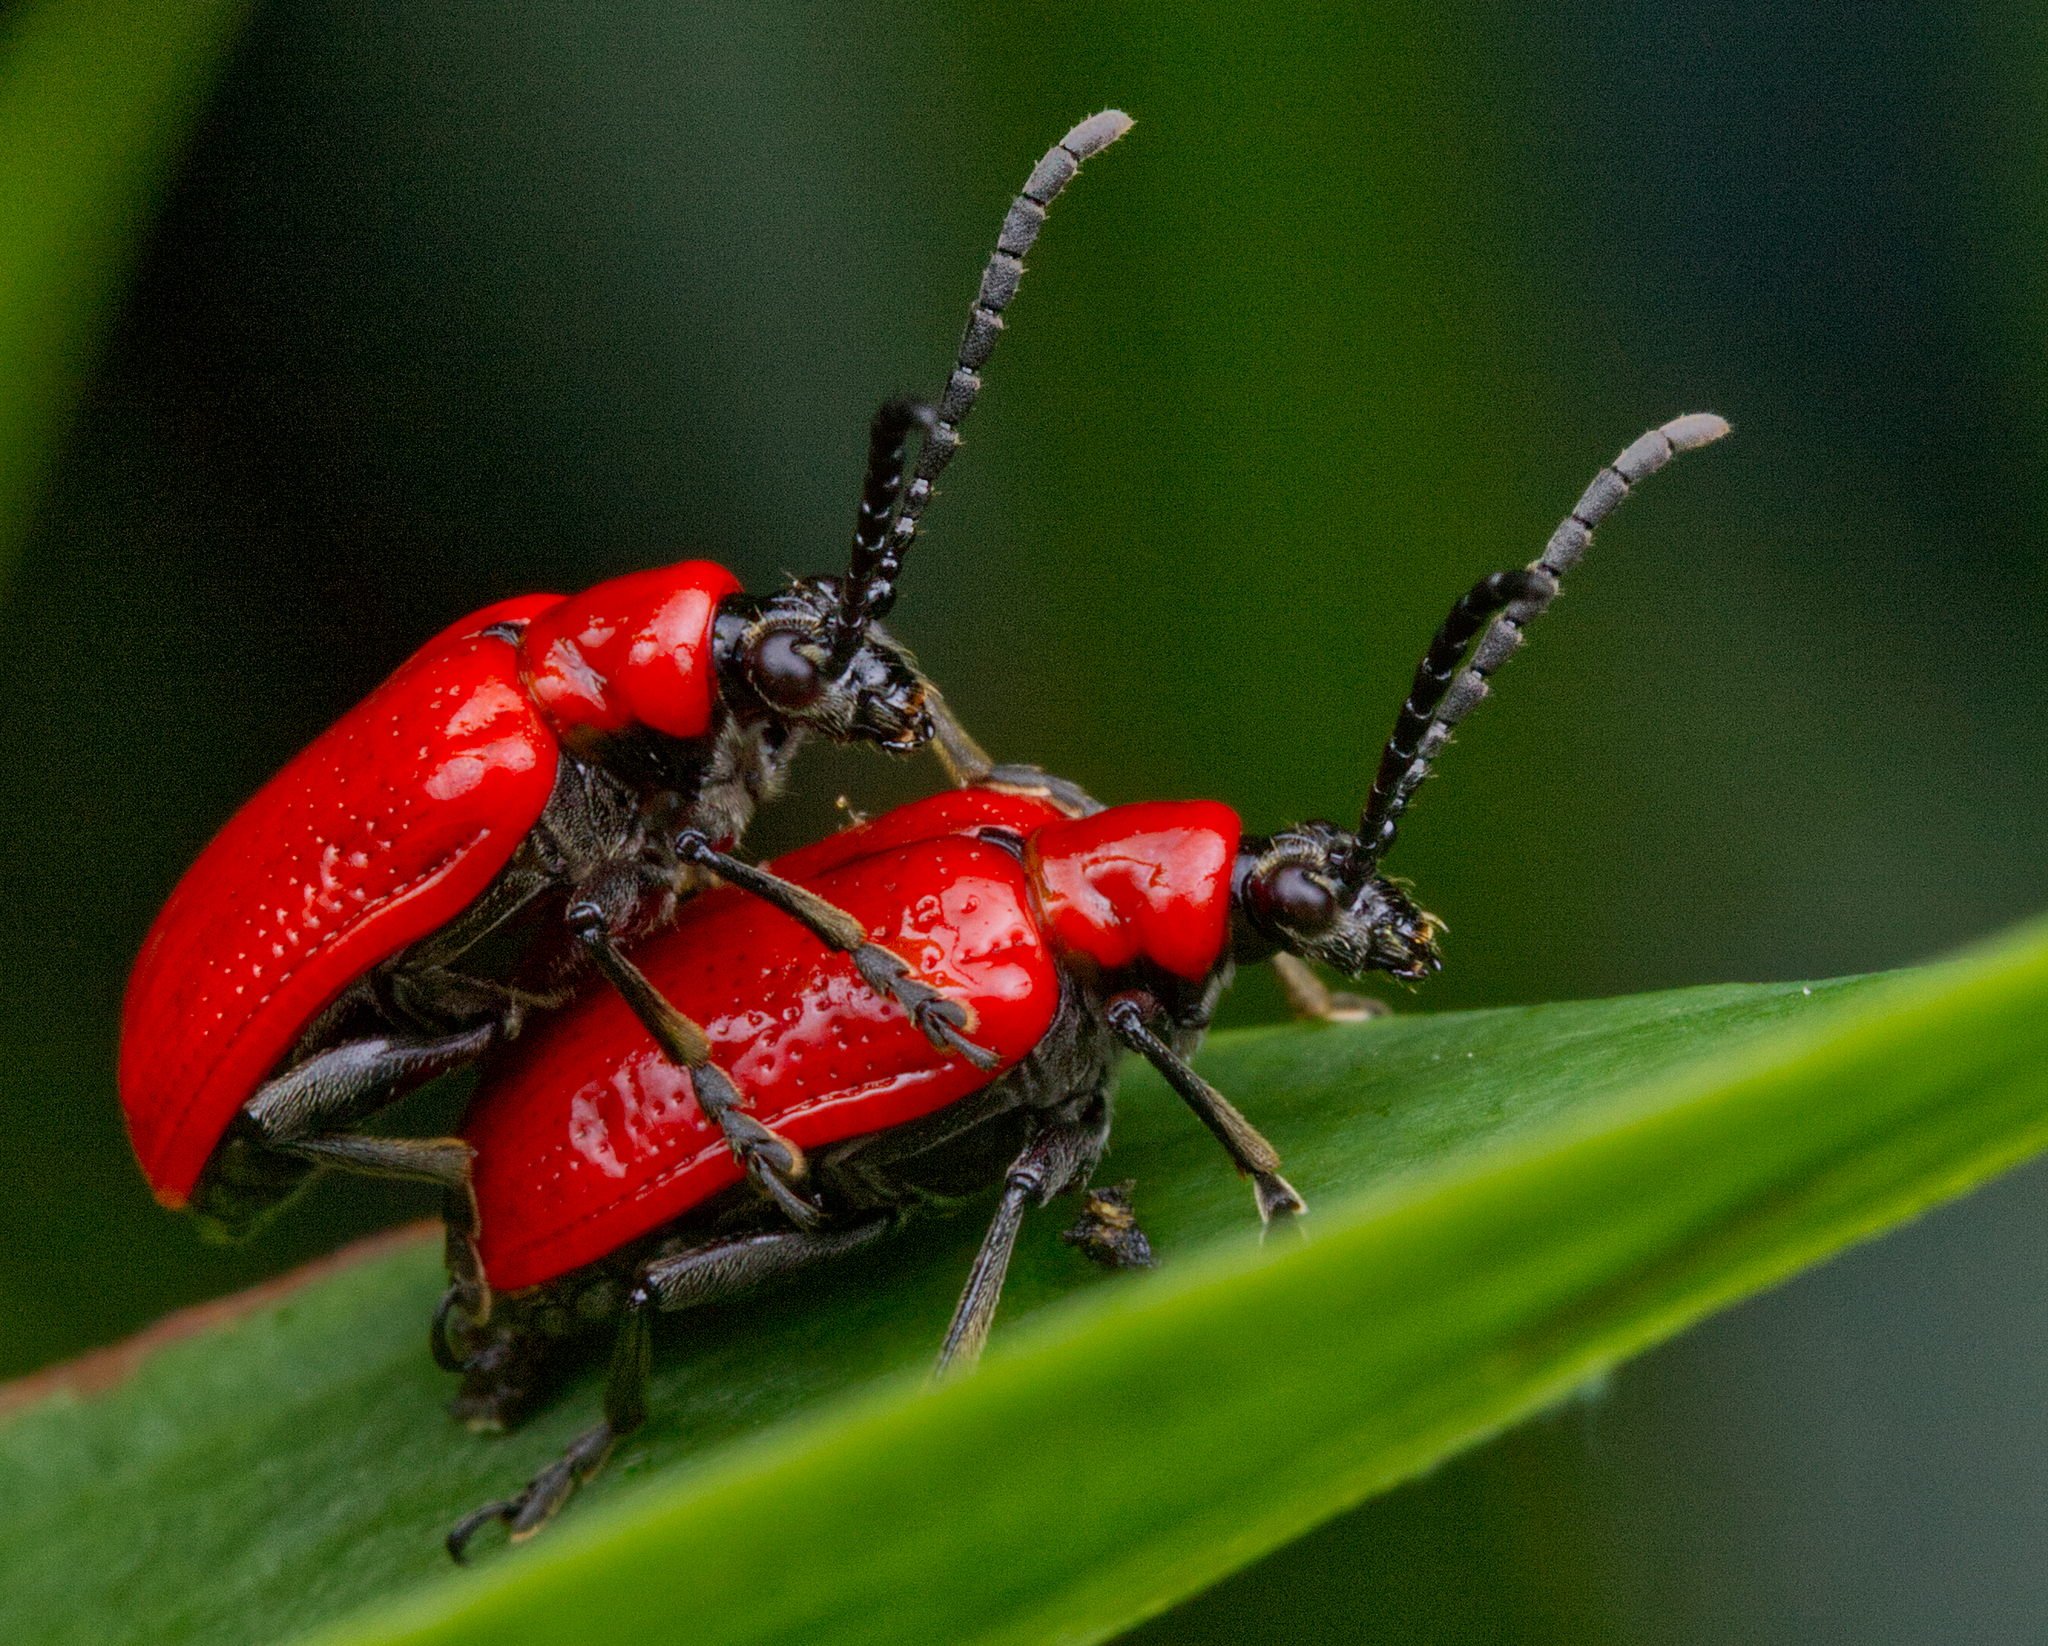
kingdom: Animalia
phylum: Arthropoda
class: Insecta
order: Coleoptera
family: Chrysomelidae
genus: Lilioceris
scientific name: Lilioceris lilii
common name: Lily beetle
